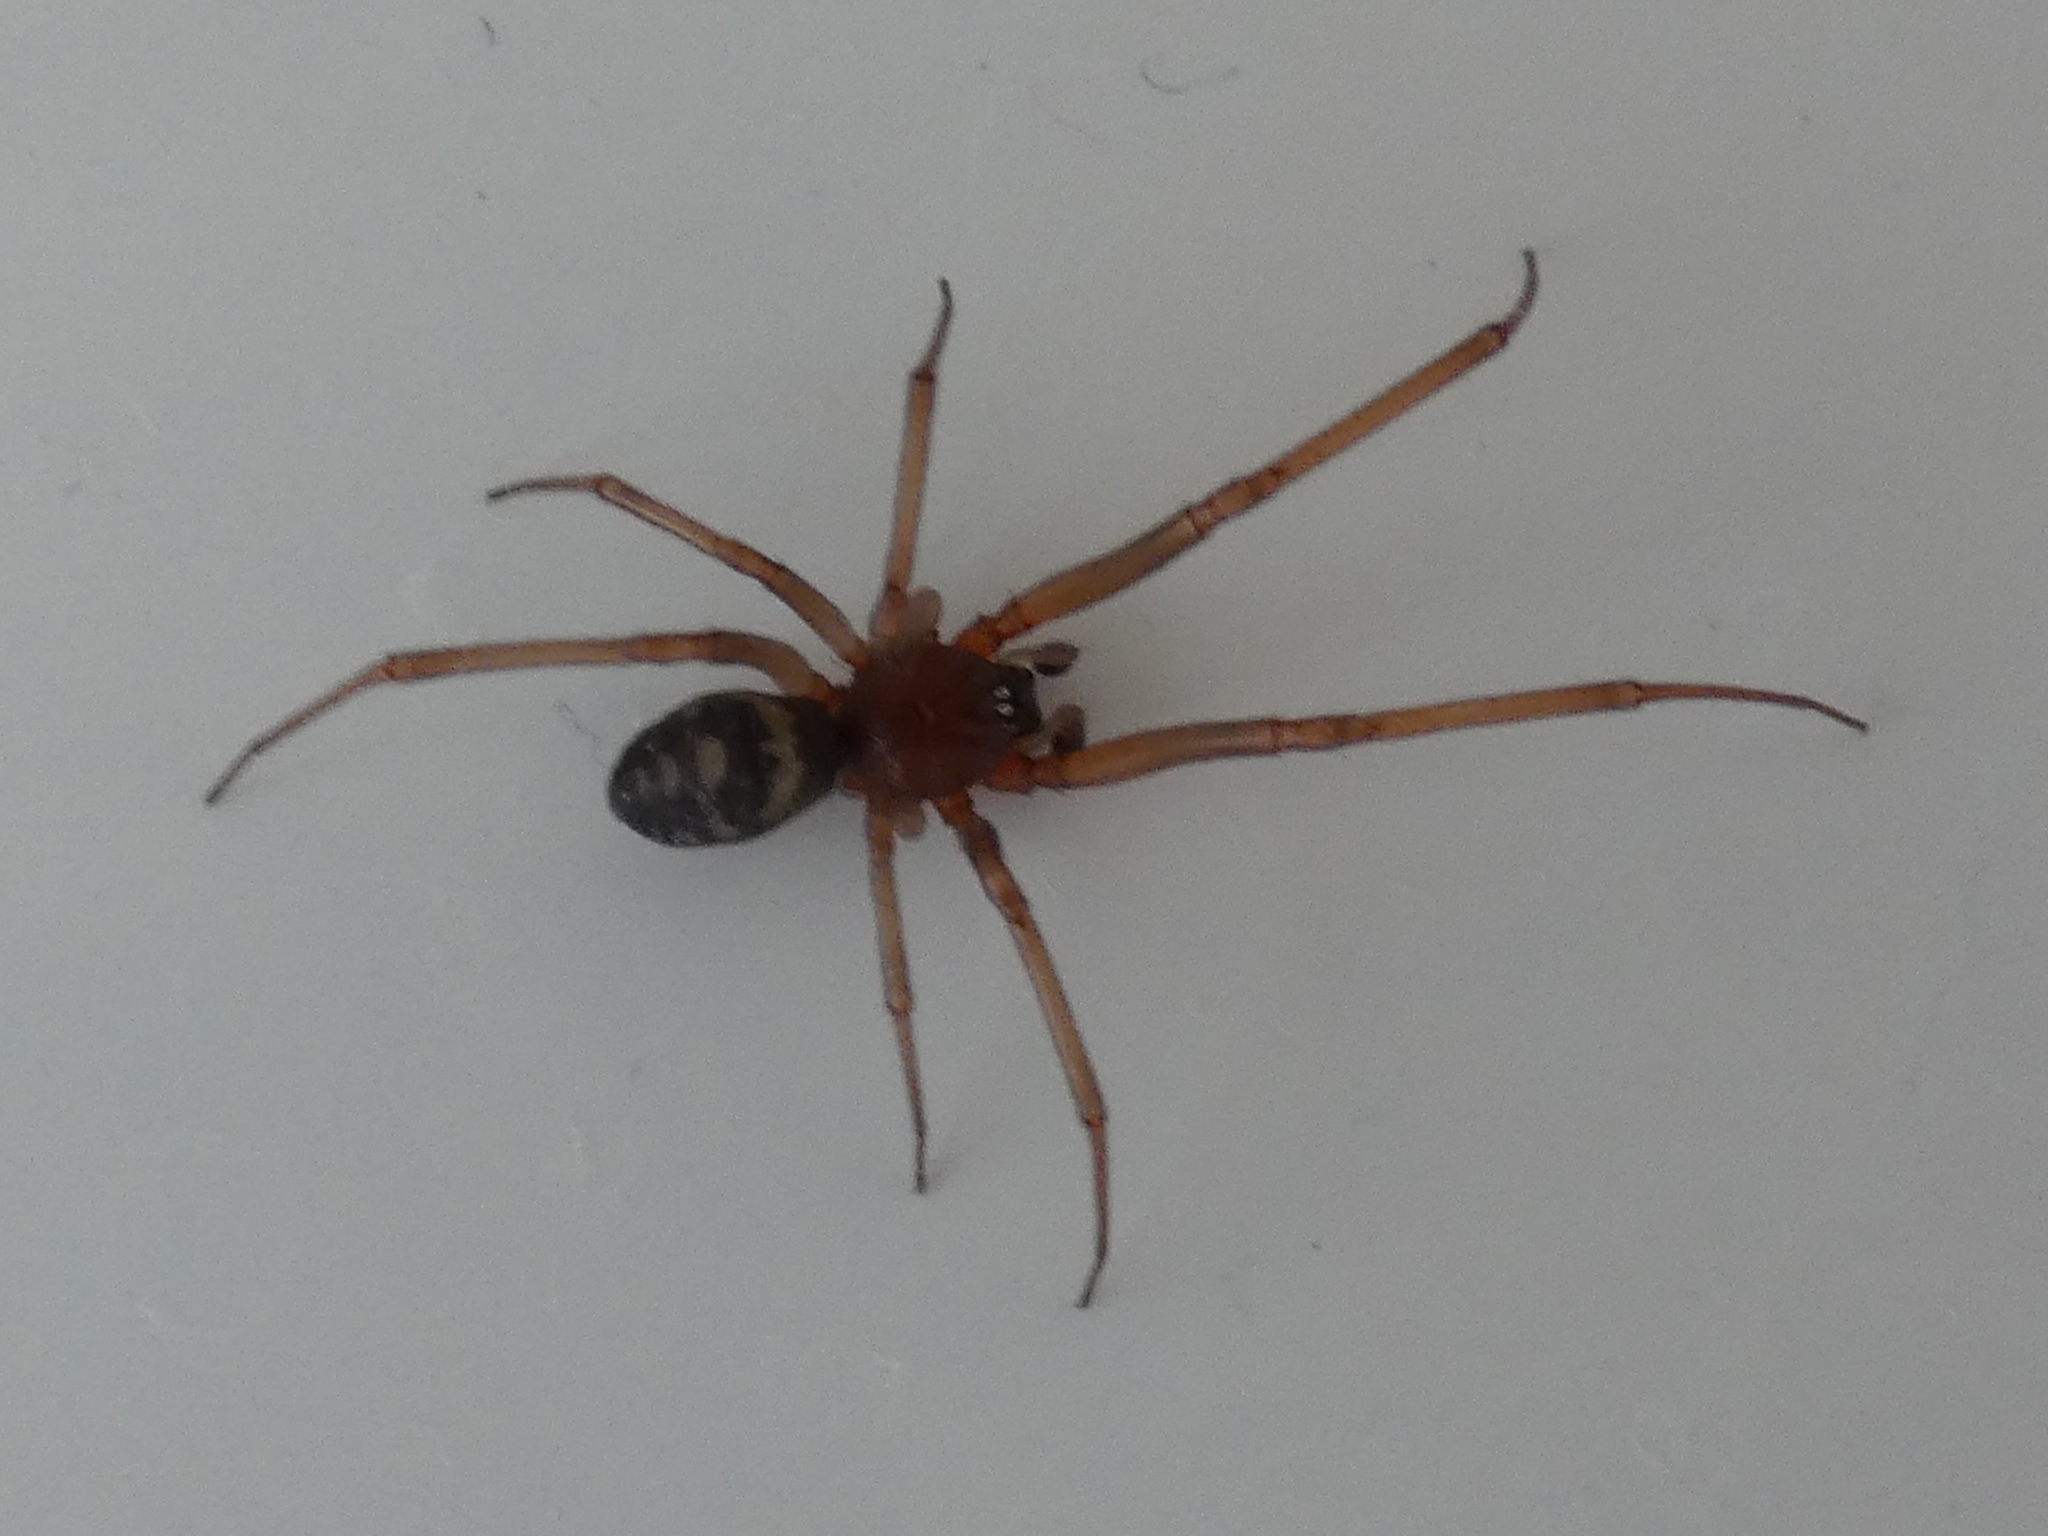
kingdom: Animalia
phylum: Arthropoda
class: Arachnida
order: Araneae
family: Theridiidae
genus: Steatoda
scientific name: Steatoda grossa
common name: False black widow
